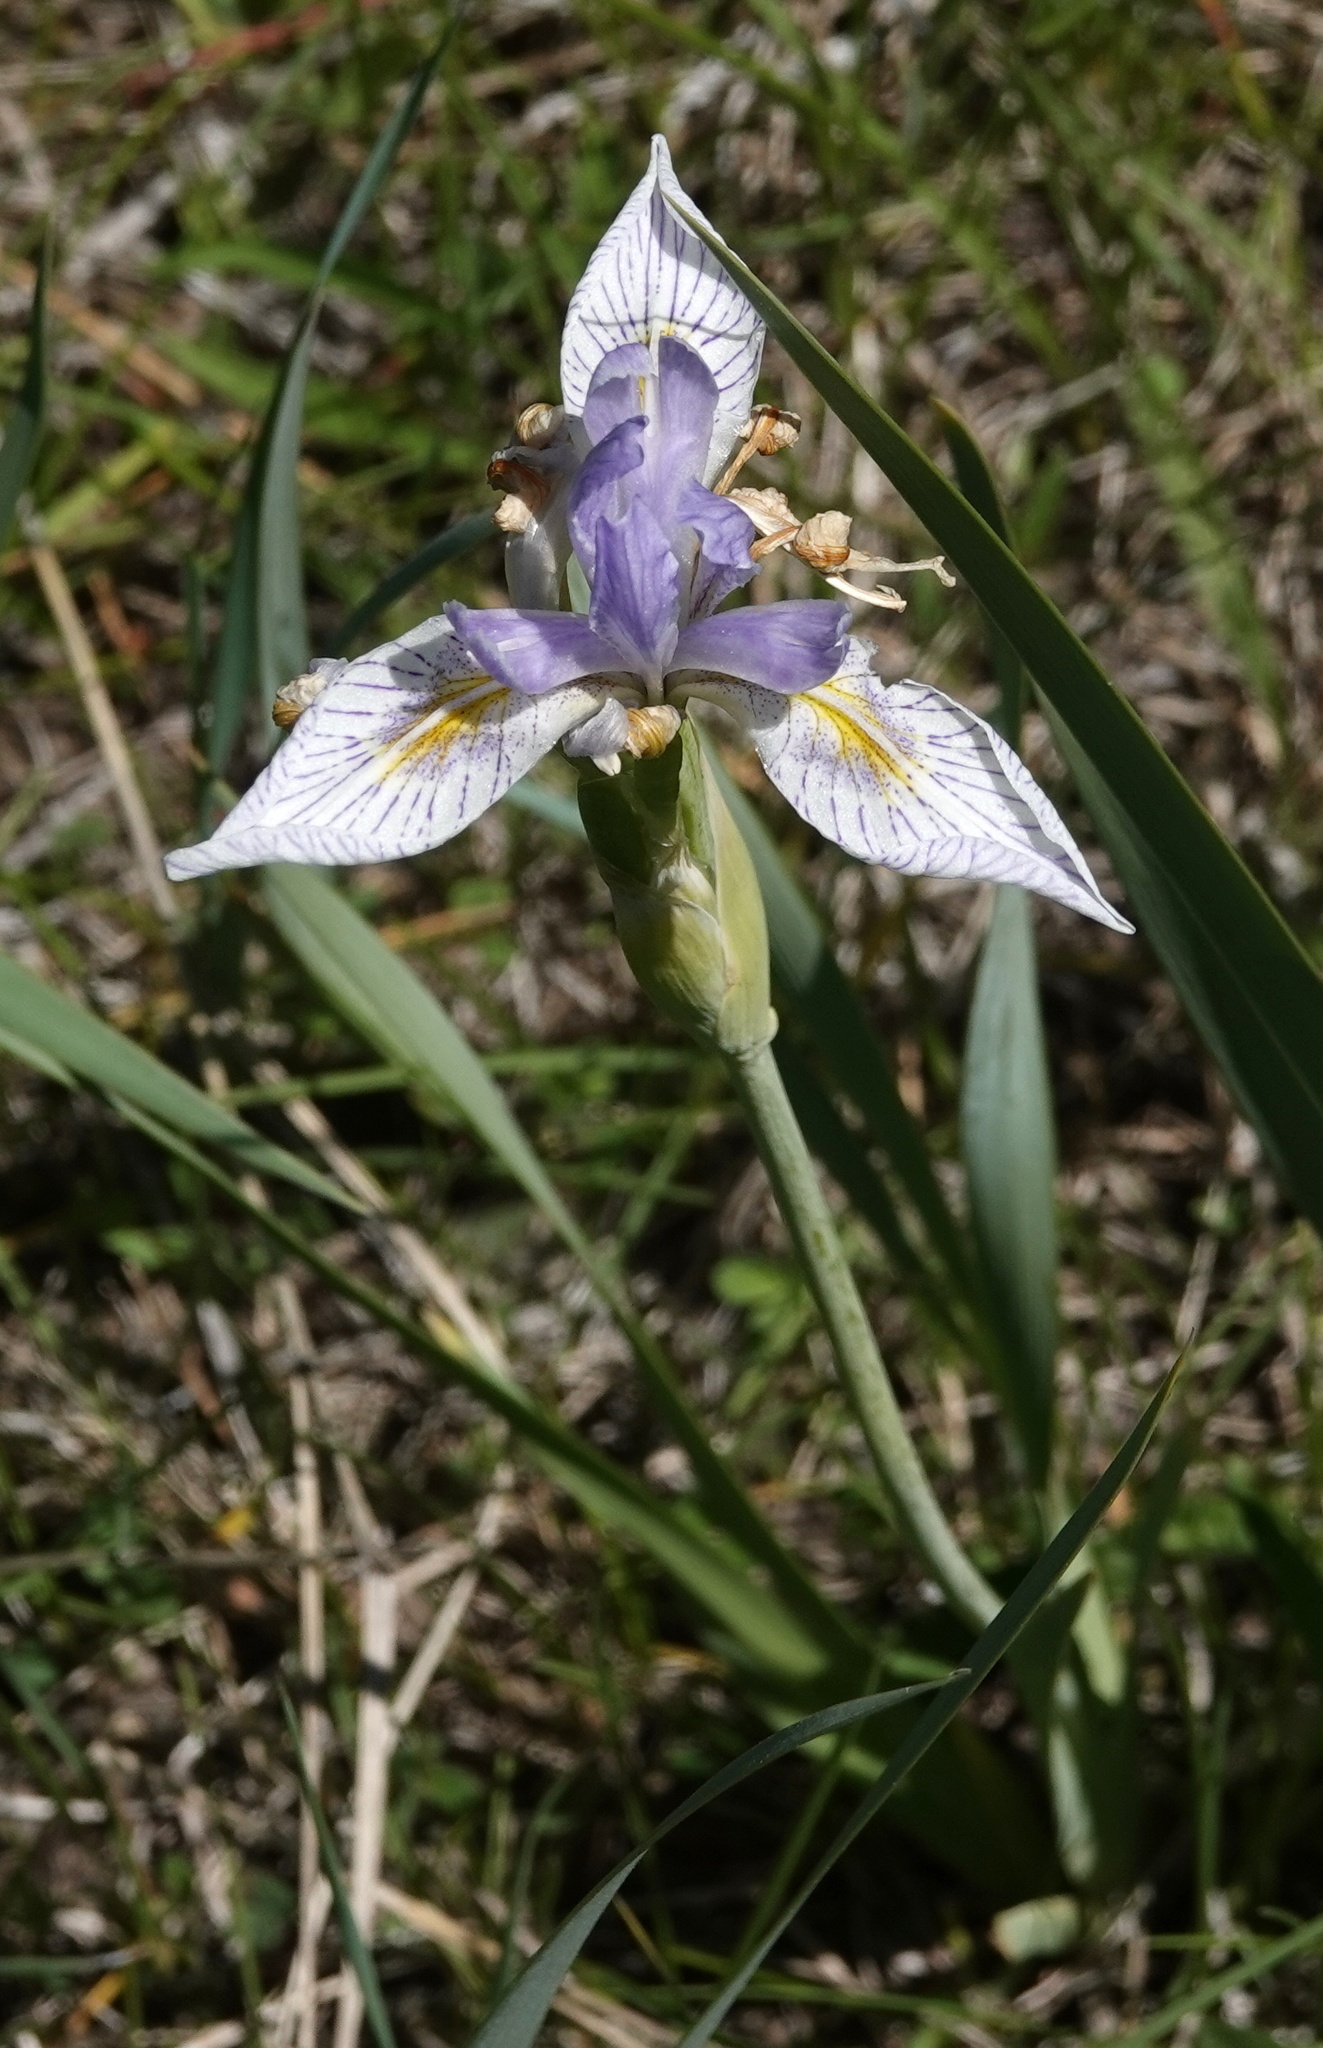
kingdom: Plantae
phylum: Tracheophyta
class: Liliopsida
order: Asparagales
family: Iridaceae
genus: Iris
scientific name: Iris missouriensis
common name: Rocky mountain iris
